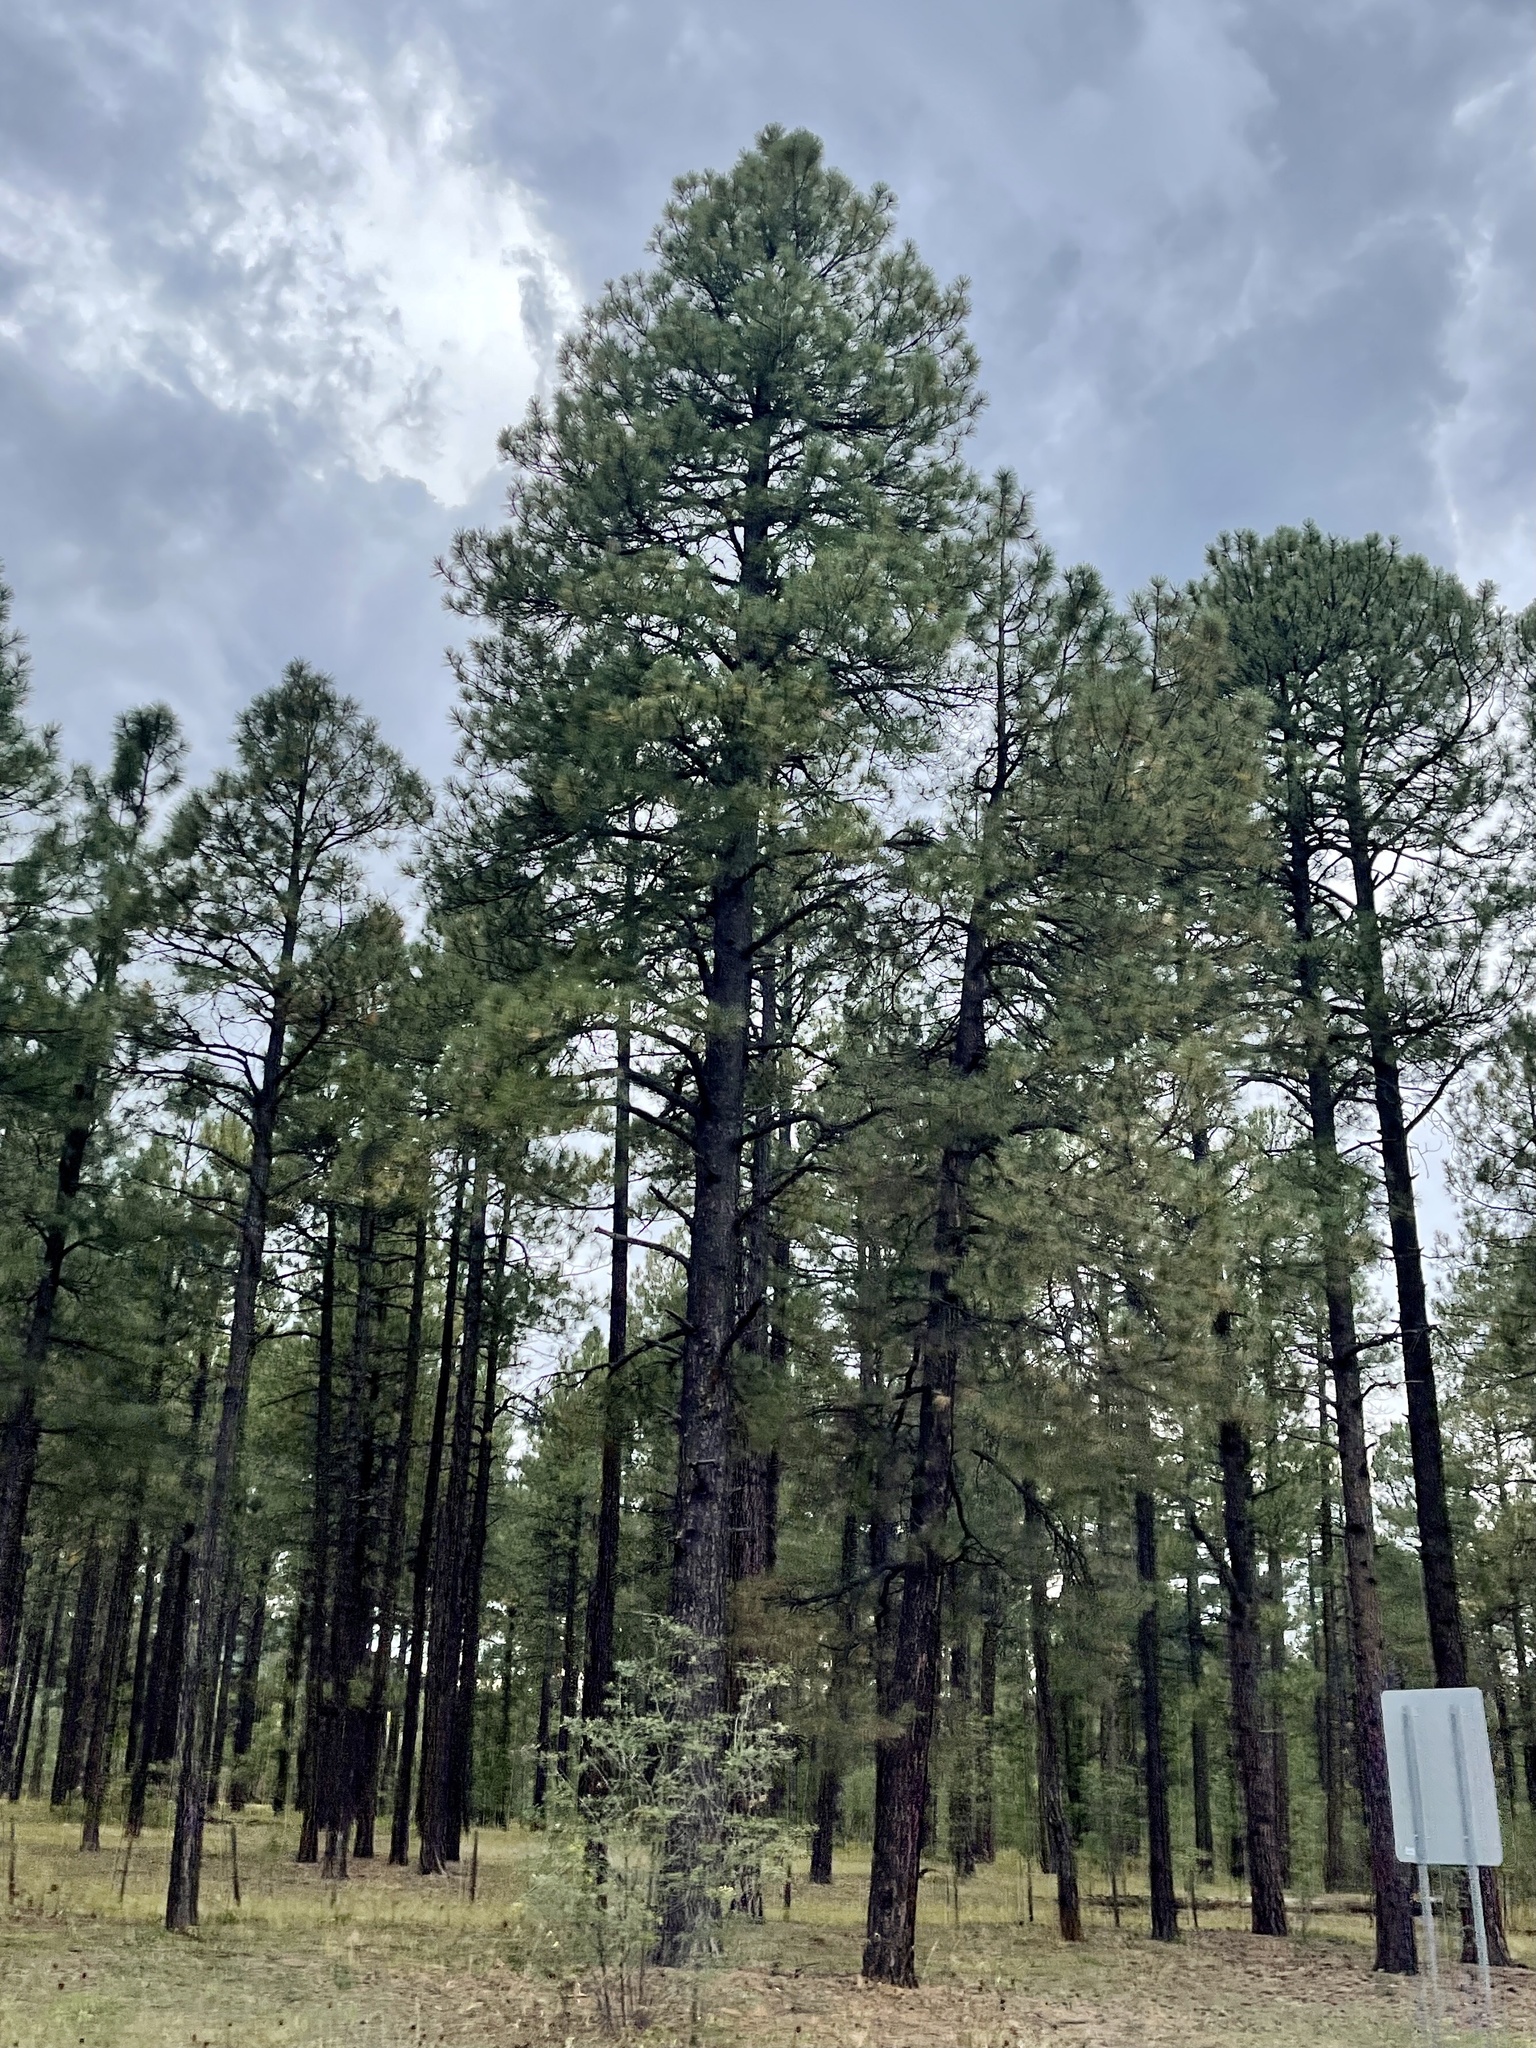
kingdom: Plantae
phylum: Tracheophyta
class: Pinopsida
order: Pinales
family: Pinaceae
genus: Pinus
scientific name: Pinus ponderosa
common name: Western yellow-pine
